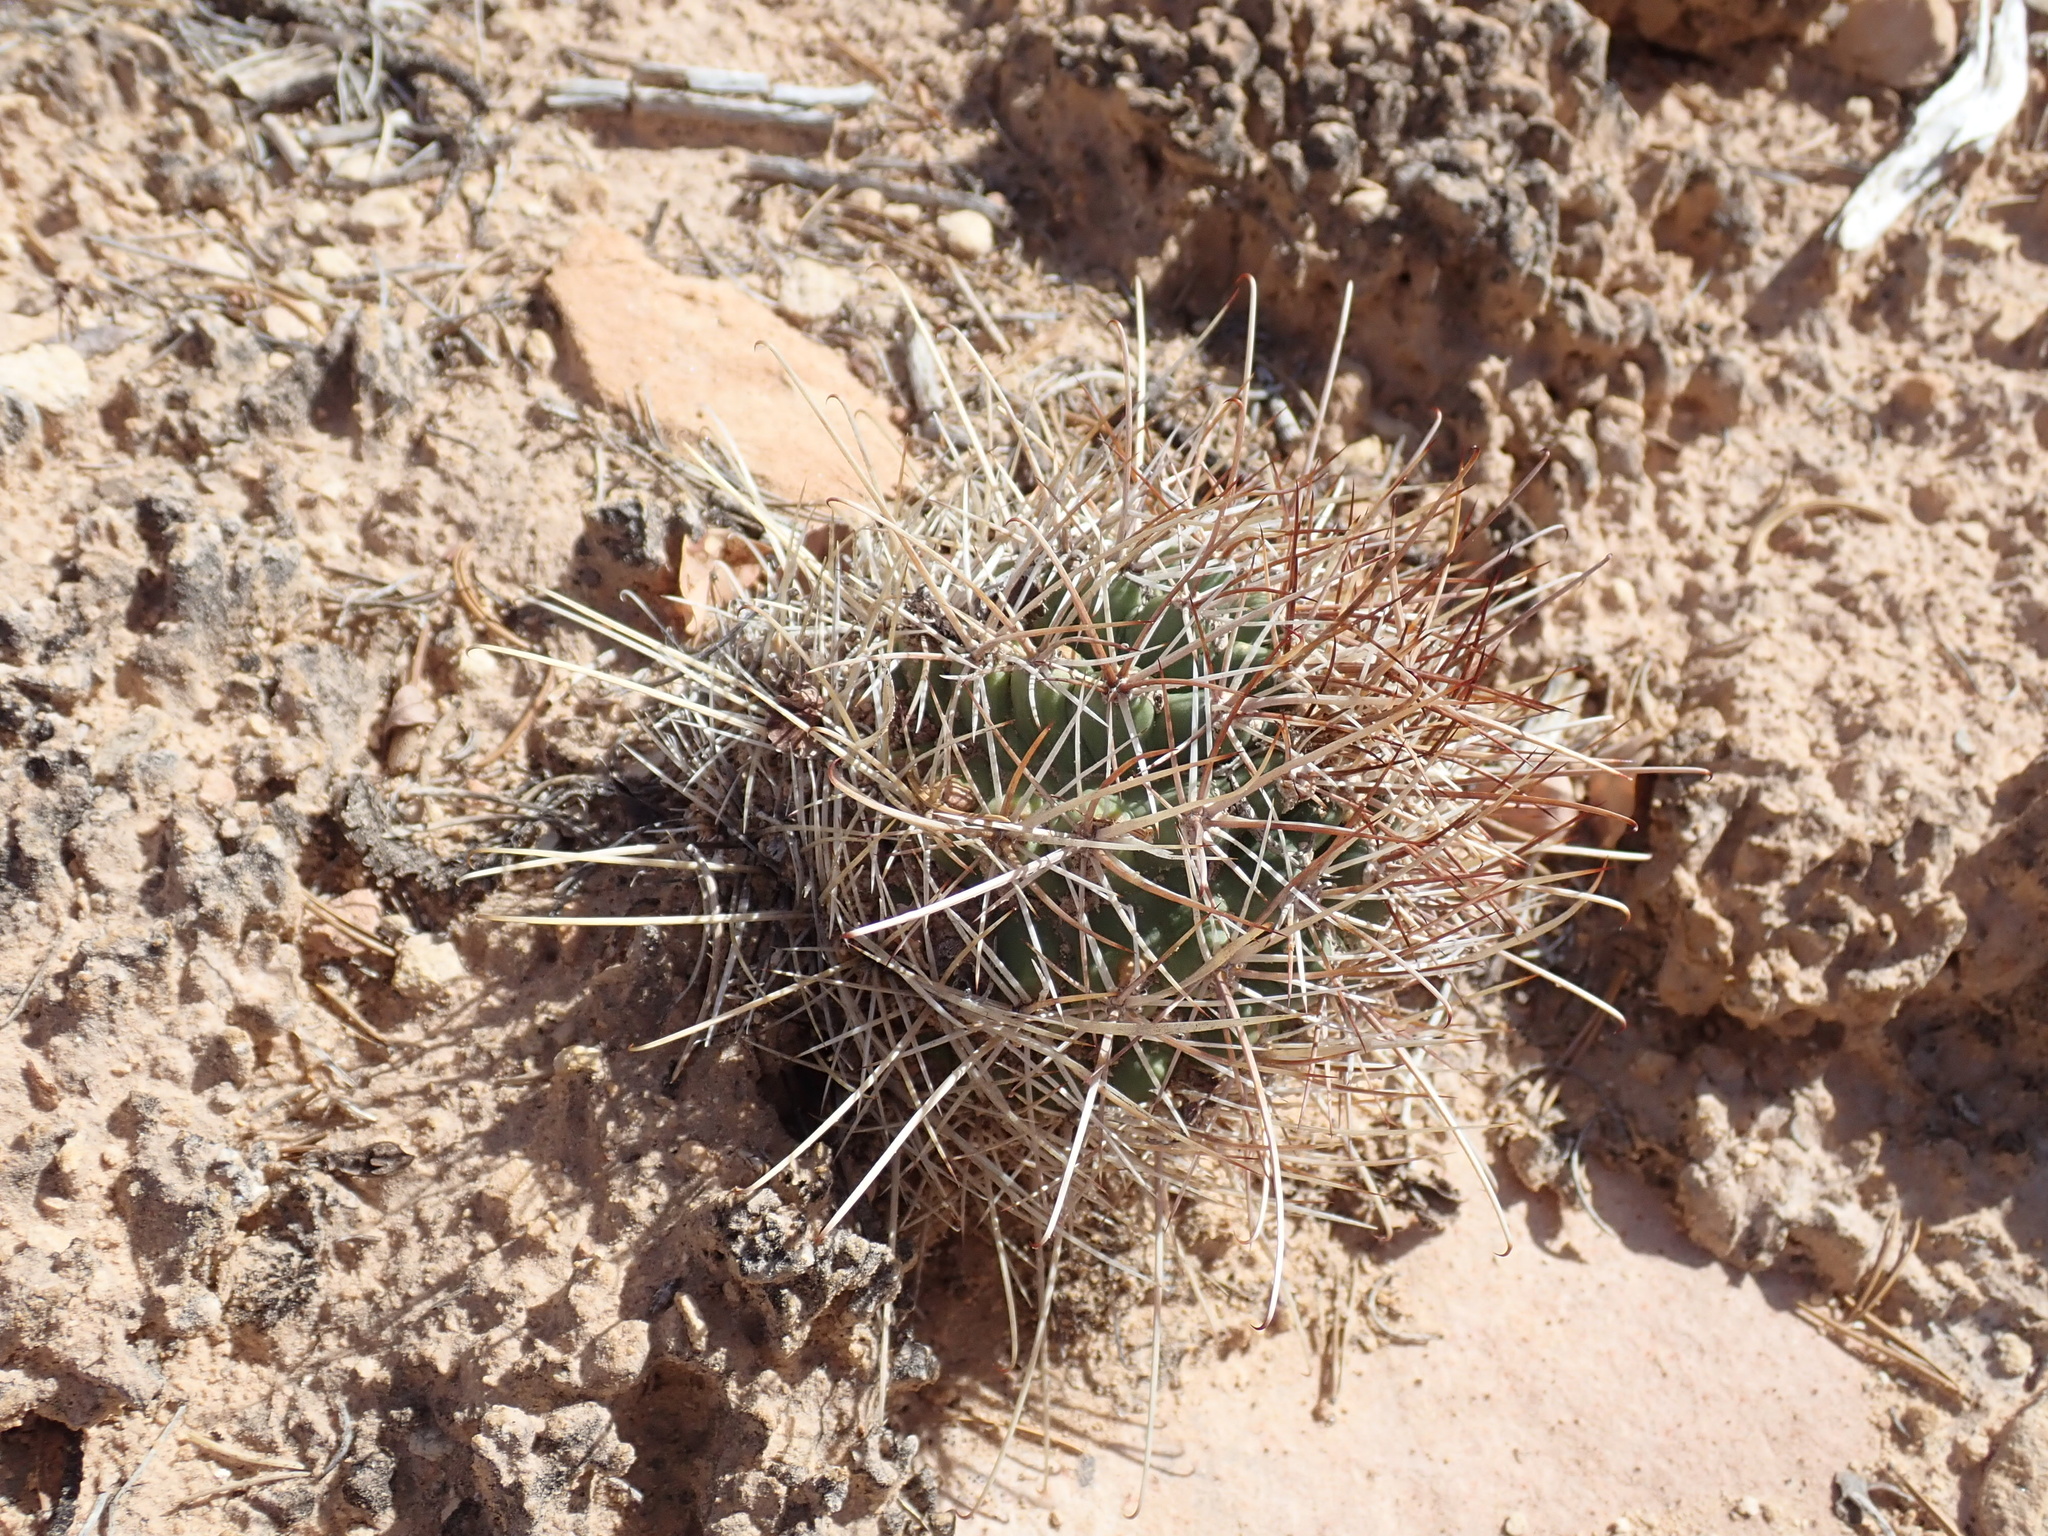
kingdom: Plantae
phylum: Tracheophyta
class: Magnoliopsida
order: Caryophyllales
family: Cactaceae
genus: Sclerocactus
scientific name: Sclerocactus parviflorus
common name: Small-flower fishhook cactus
